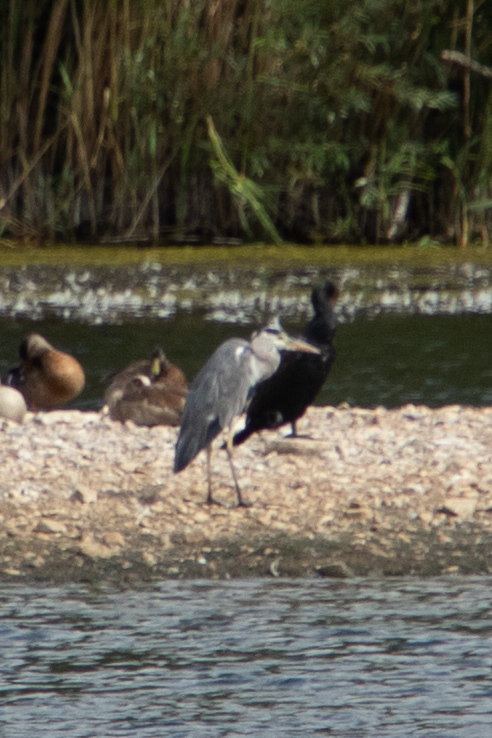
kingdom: Animalia
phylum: Chordata
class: Aves
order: Pelecaniformes
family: Ardeidae
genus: Ardea
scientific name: Ardea cinerea
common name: Grey heron
